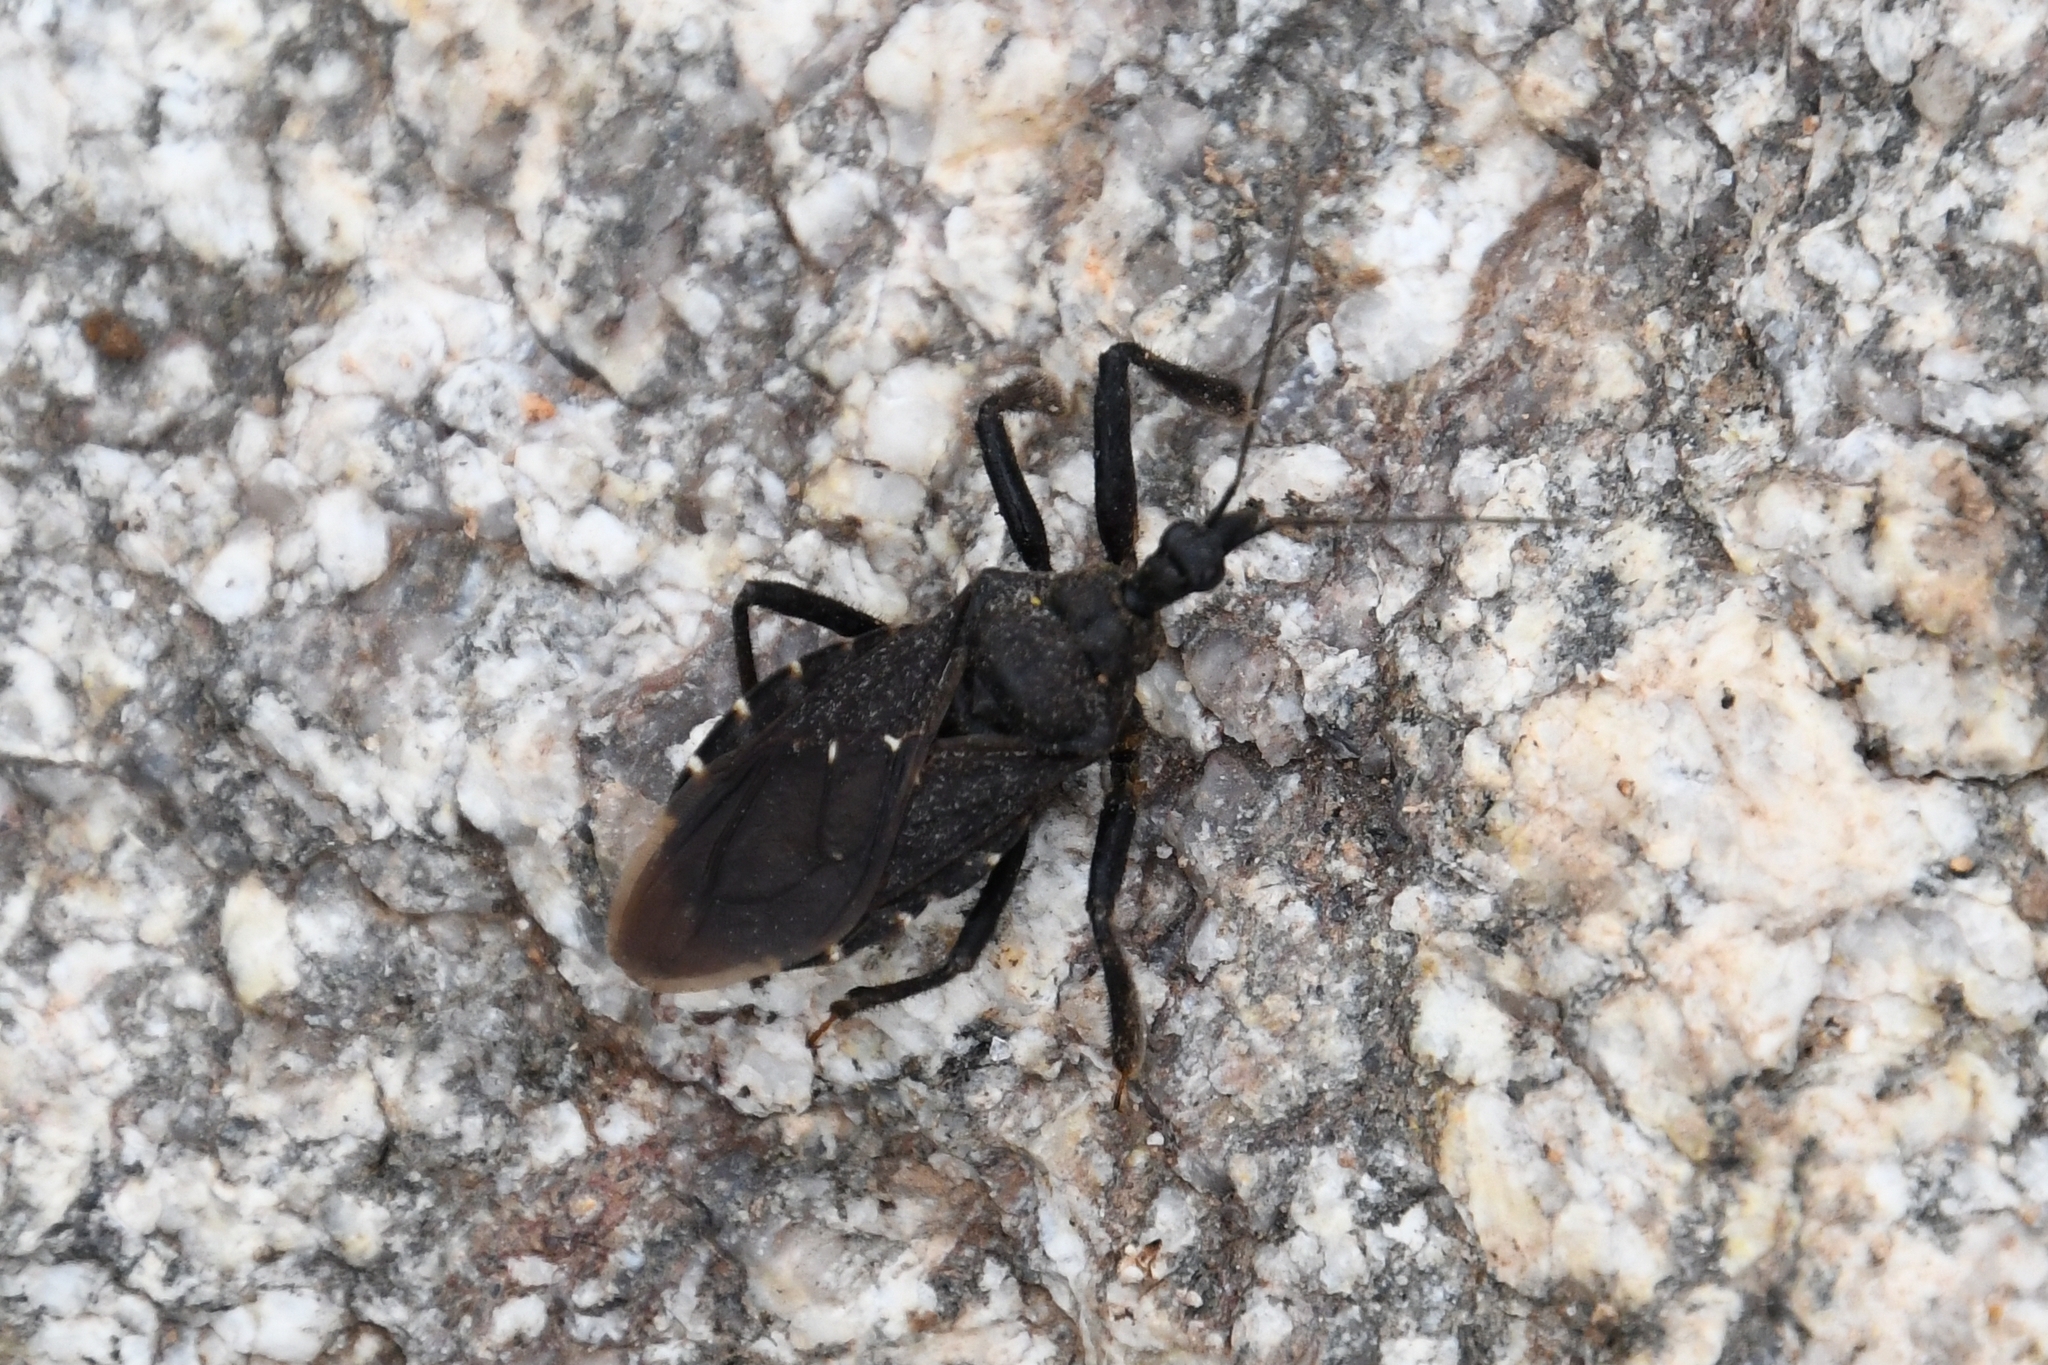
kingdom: Animalia
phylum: Arthropoda
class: Insecta
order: Hemiptera
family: Reduviidae
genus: Apiomerus
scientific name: Apiomerus longispinis
